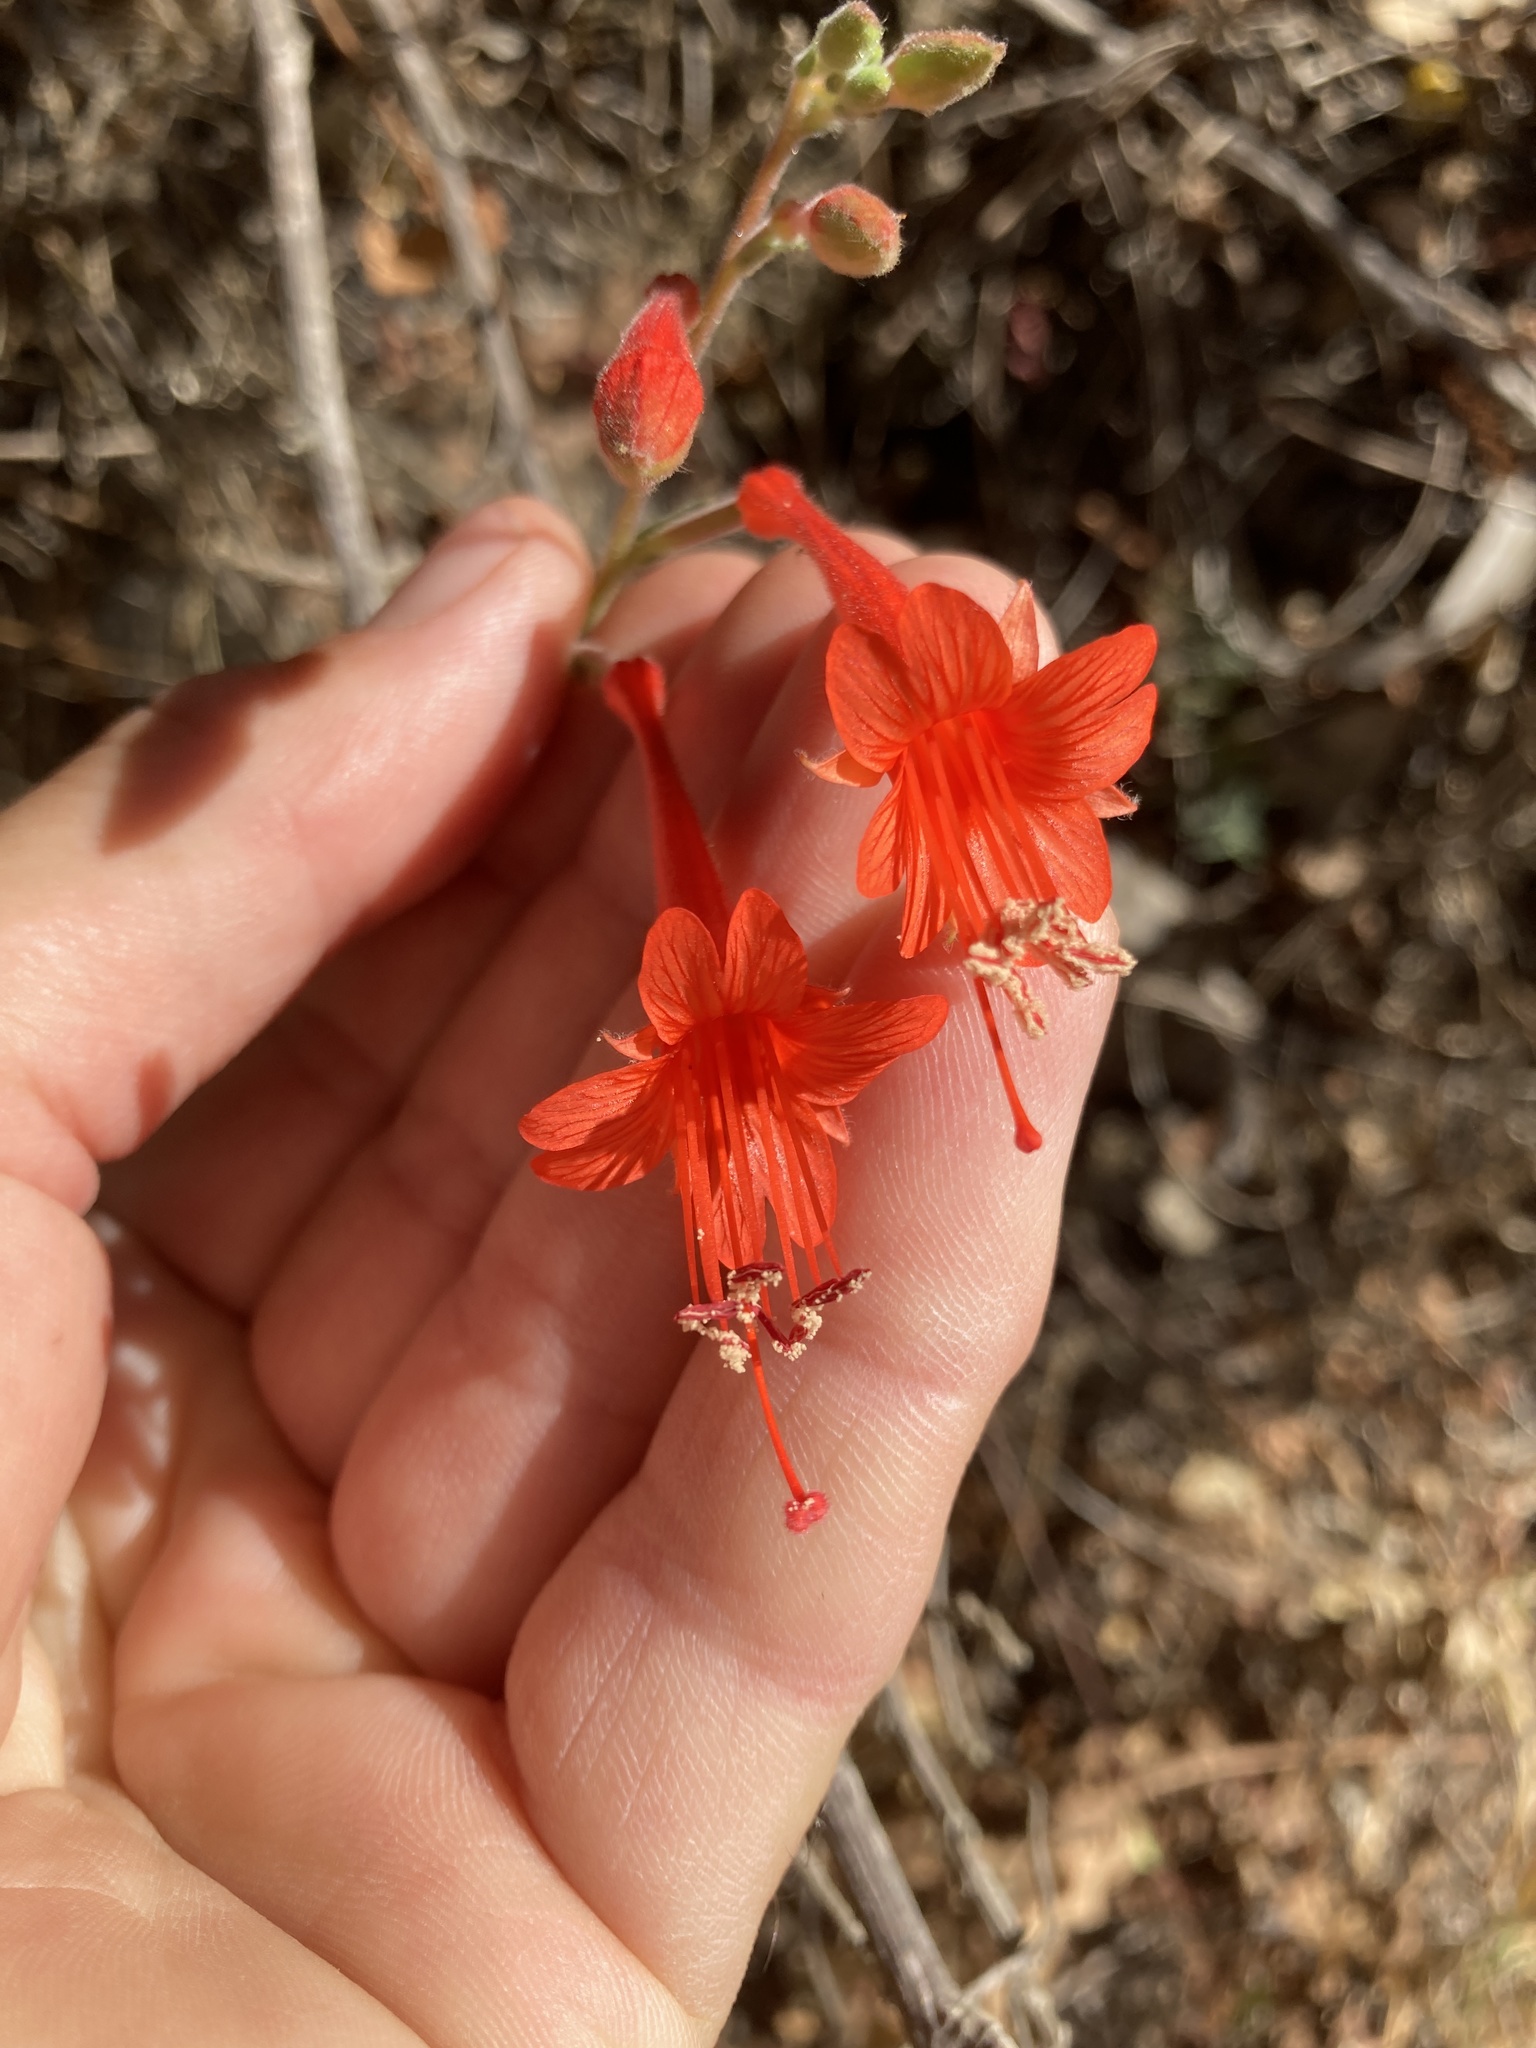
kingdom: Plantae
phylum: Tracheophyta
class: Magnoliopsida
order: Myrtales
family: Onagraceae
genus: Epilobium
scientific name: Epilobium canum
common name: California-fuchsia
